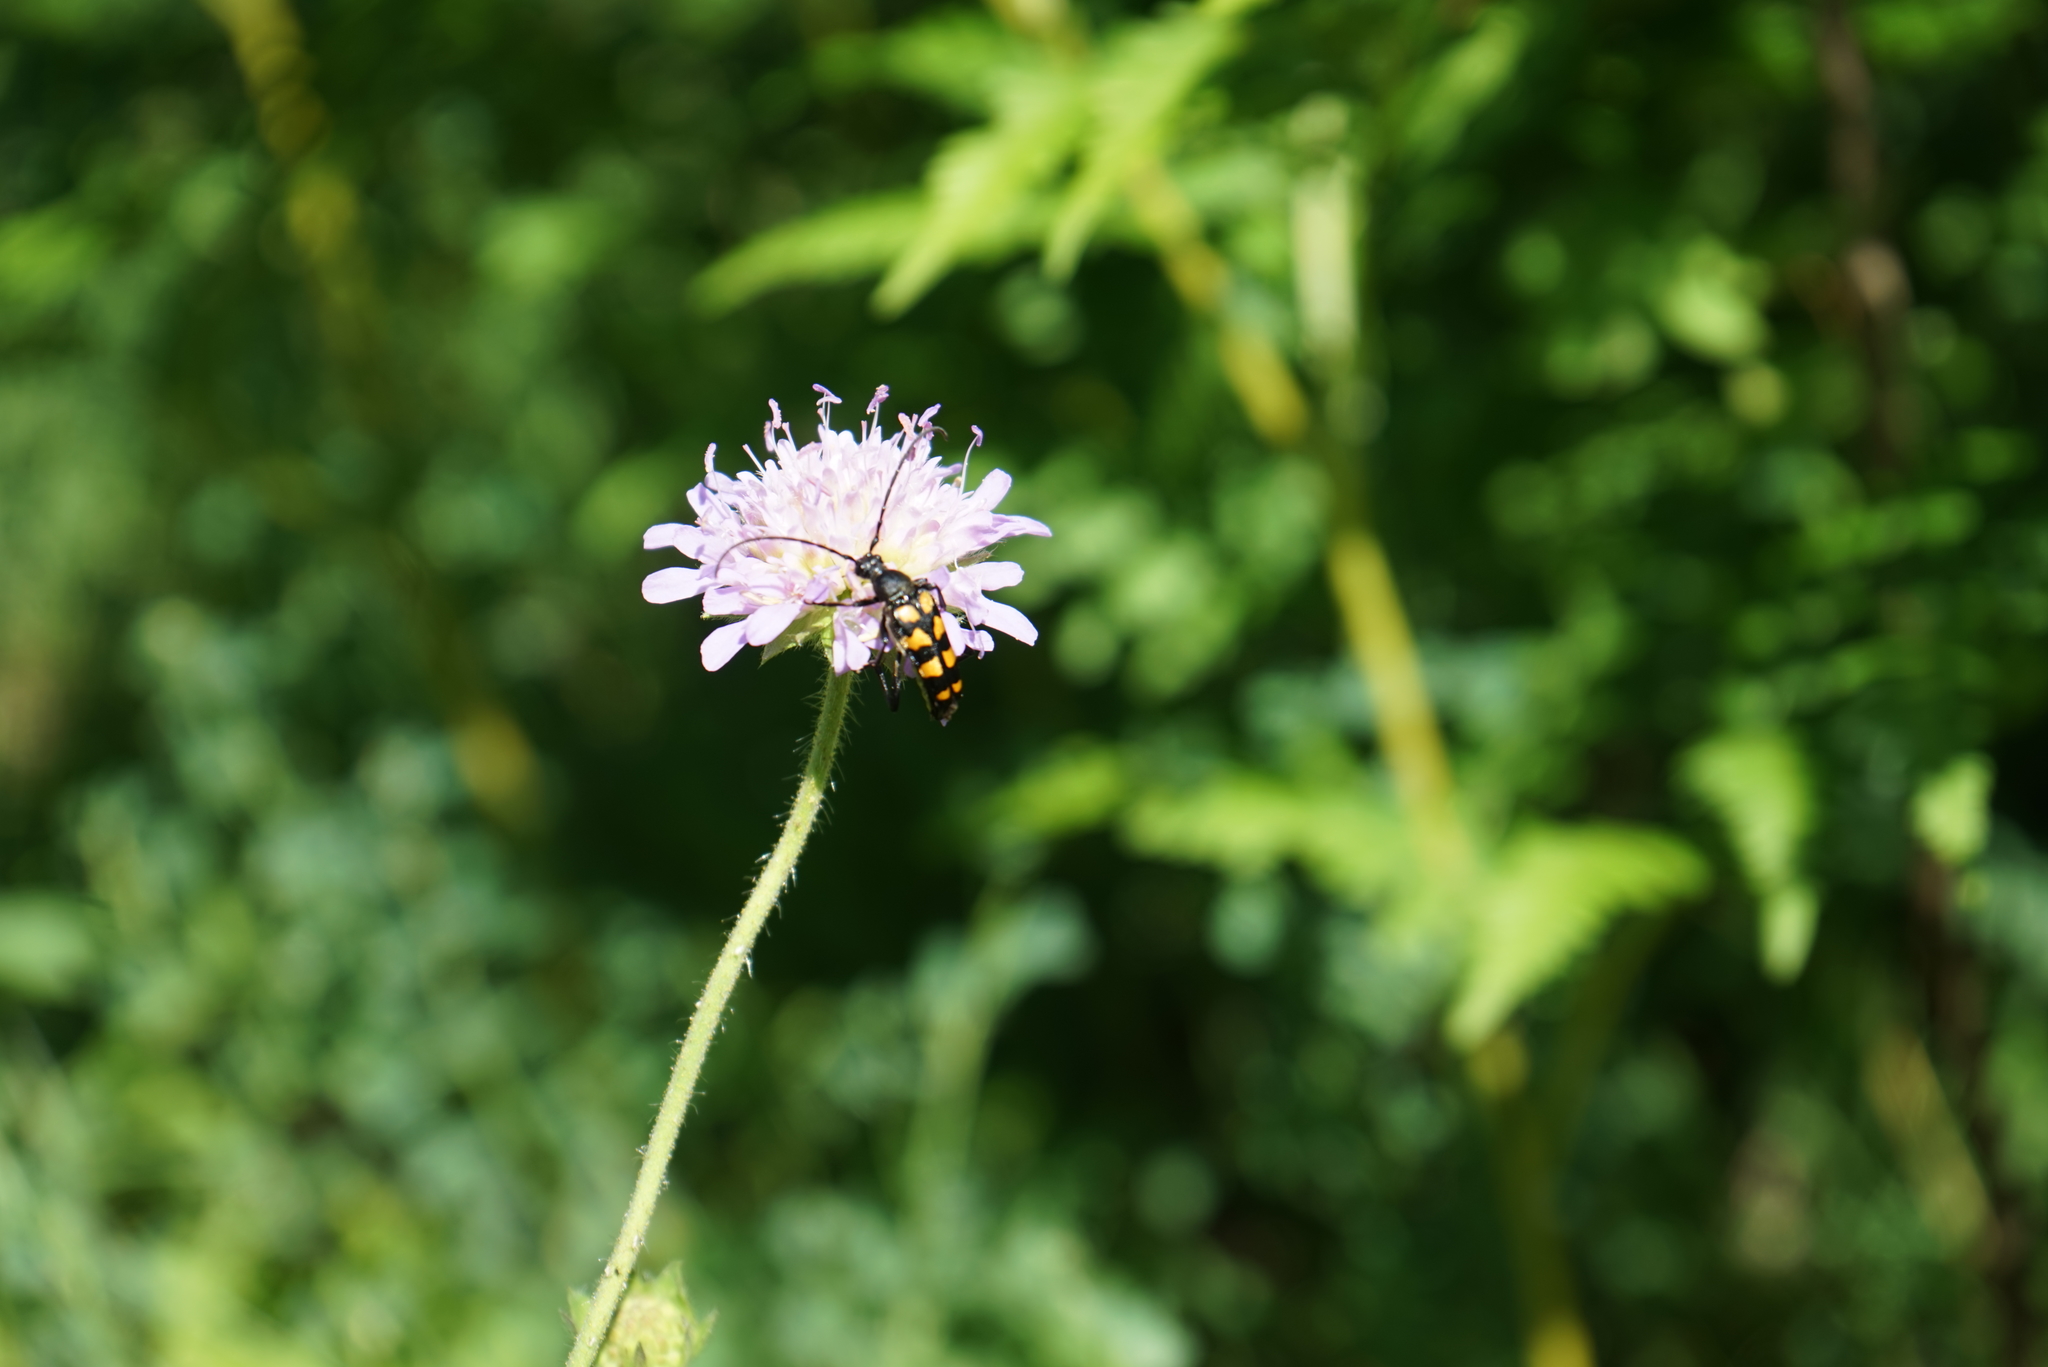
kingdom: Animalia
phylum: Arthropoda
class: Insecta
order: Coleoptera
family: Cerambycidae
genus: Leptura
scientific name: Leptura quadrifasciata
